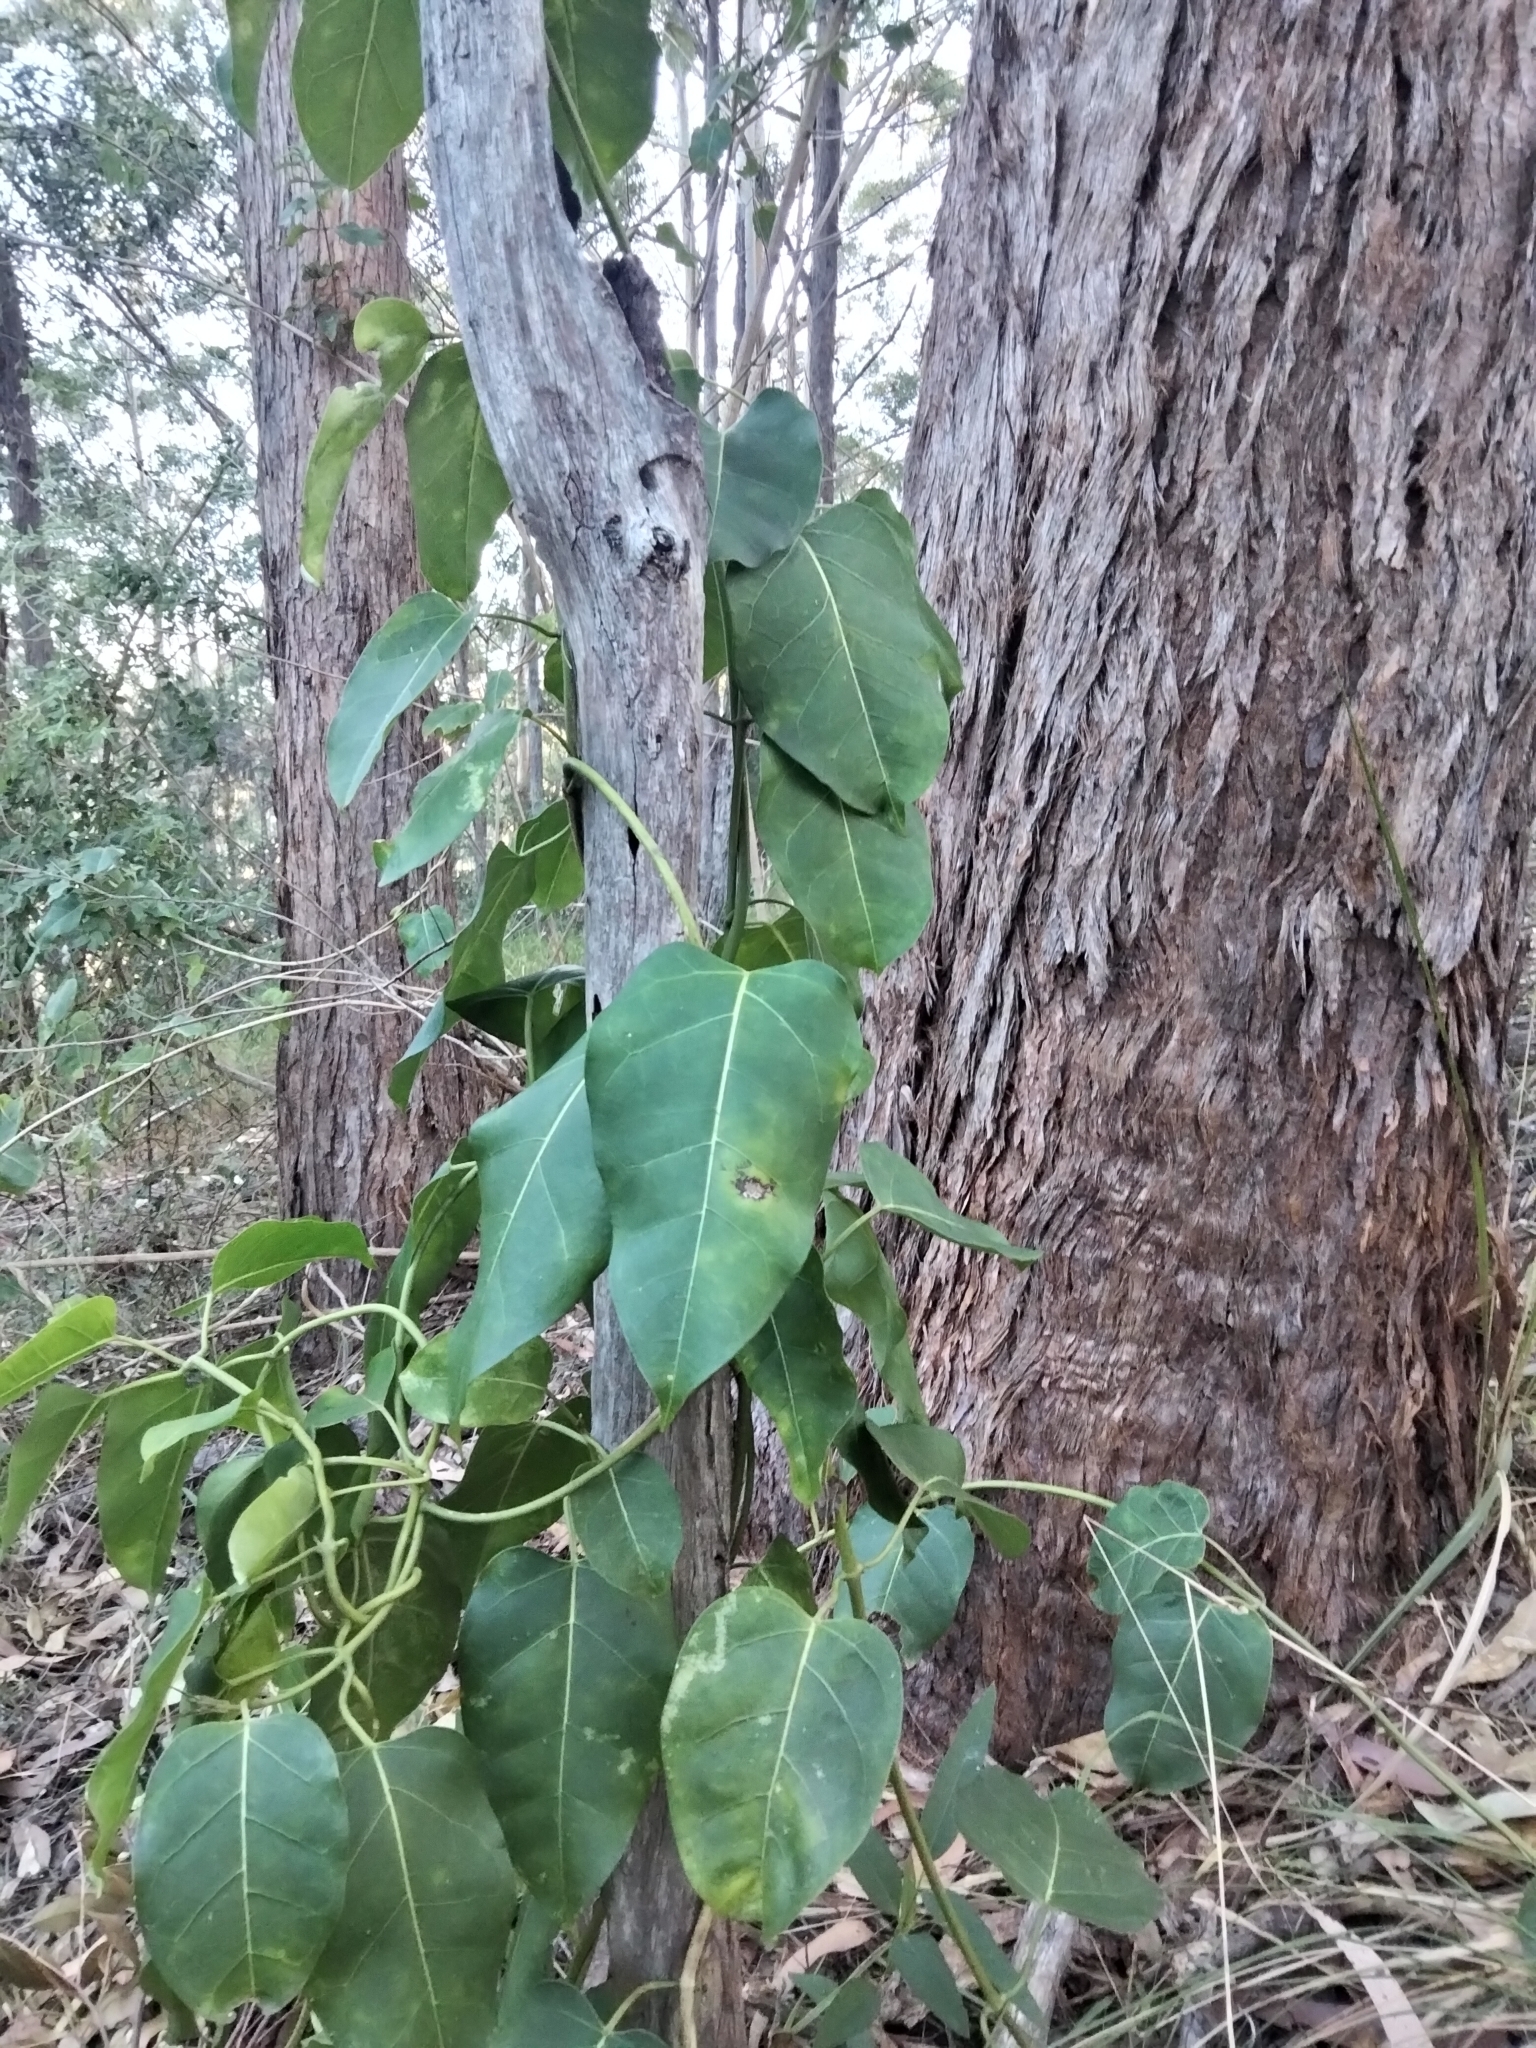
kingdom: Plantae
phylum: Tracheophyta
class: Magnoliopsida
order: Gentianales
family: Apocynaceae
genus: Leichhardtia
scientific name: Leichhardtia rostrata
